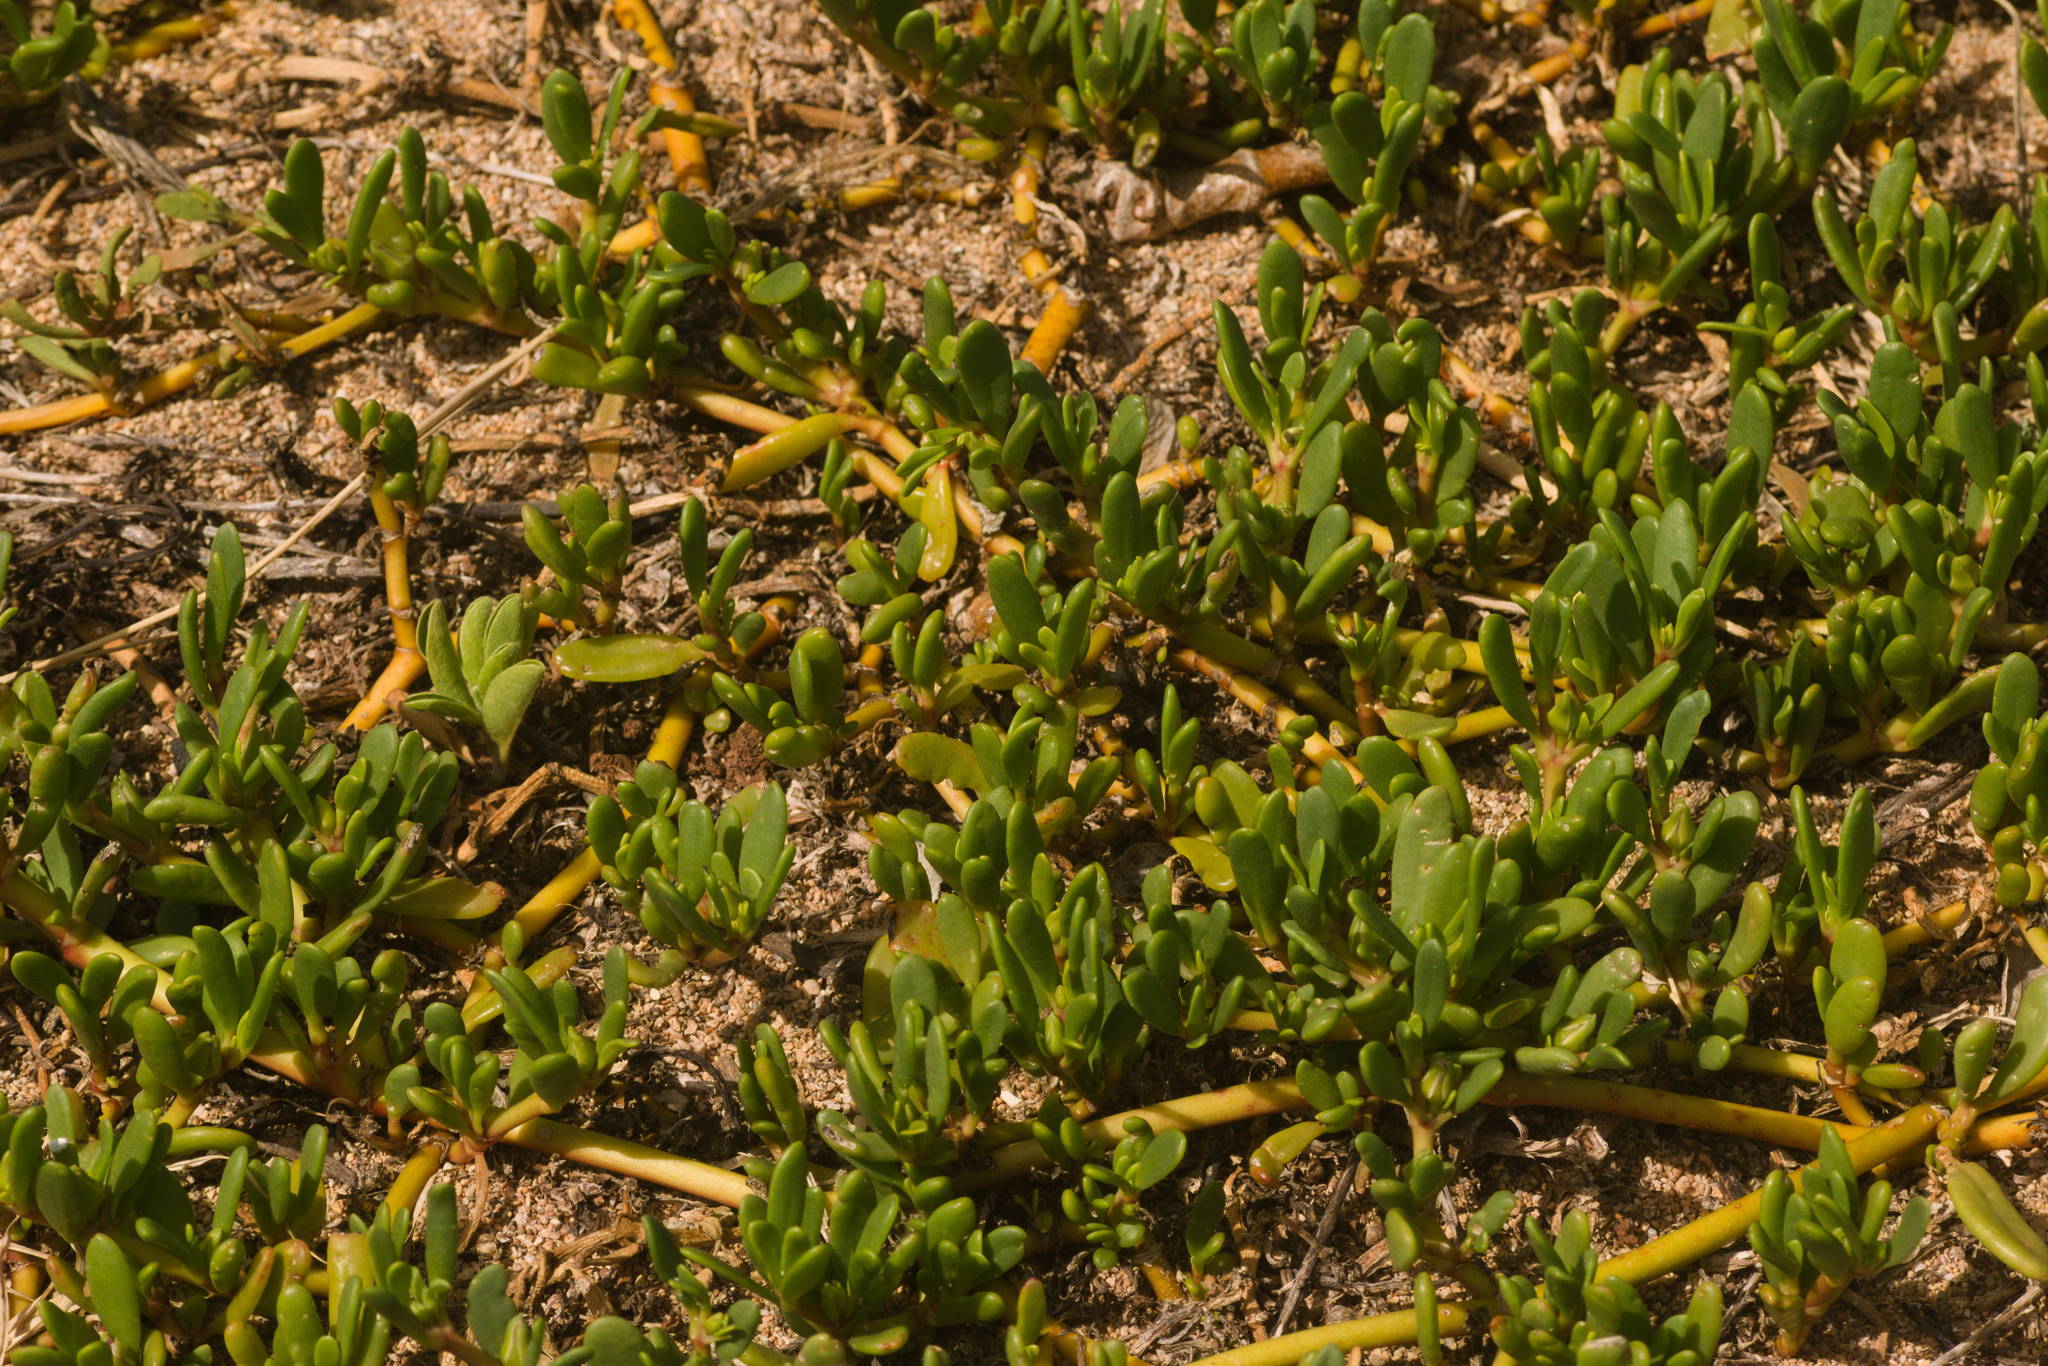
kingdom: Plantae
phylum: Tracheophyta
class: Magnoliopsida
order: Caryophyllales
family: Aizoaceae
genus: Sesuvium
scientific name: Sesuvium portulacastrum
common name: Sea-purslane
